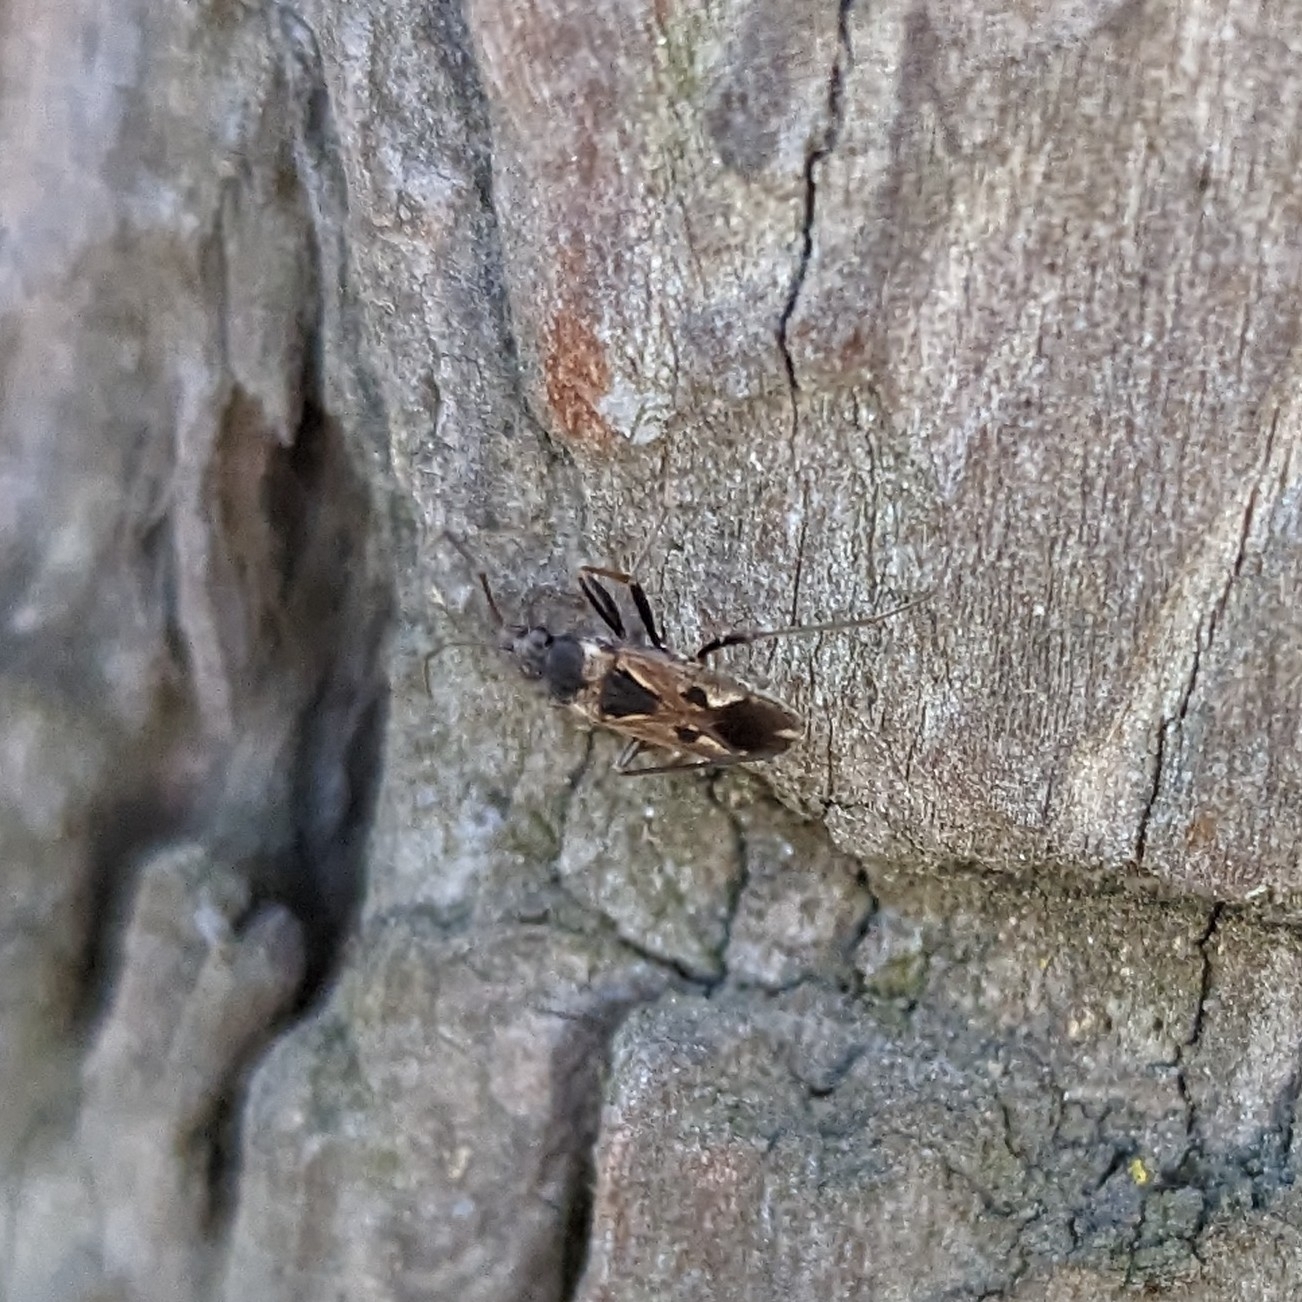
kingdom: Animalia
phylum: Arthropoda
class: Insecta
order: Hemiptera
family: Rhyparochromidae
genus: Rhyparochromus
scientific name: Rhyparochromus vulgaris
